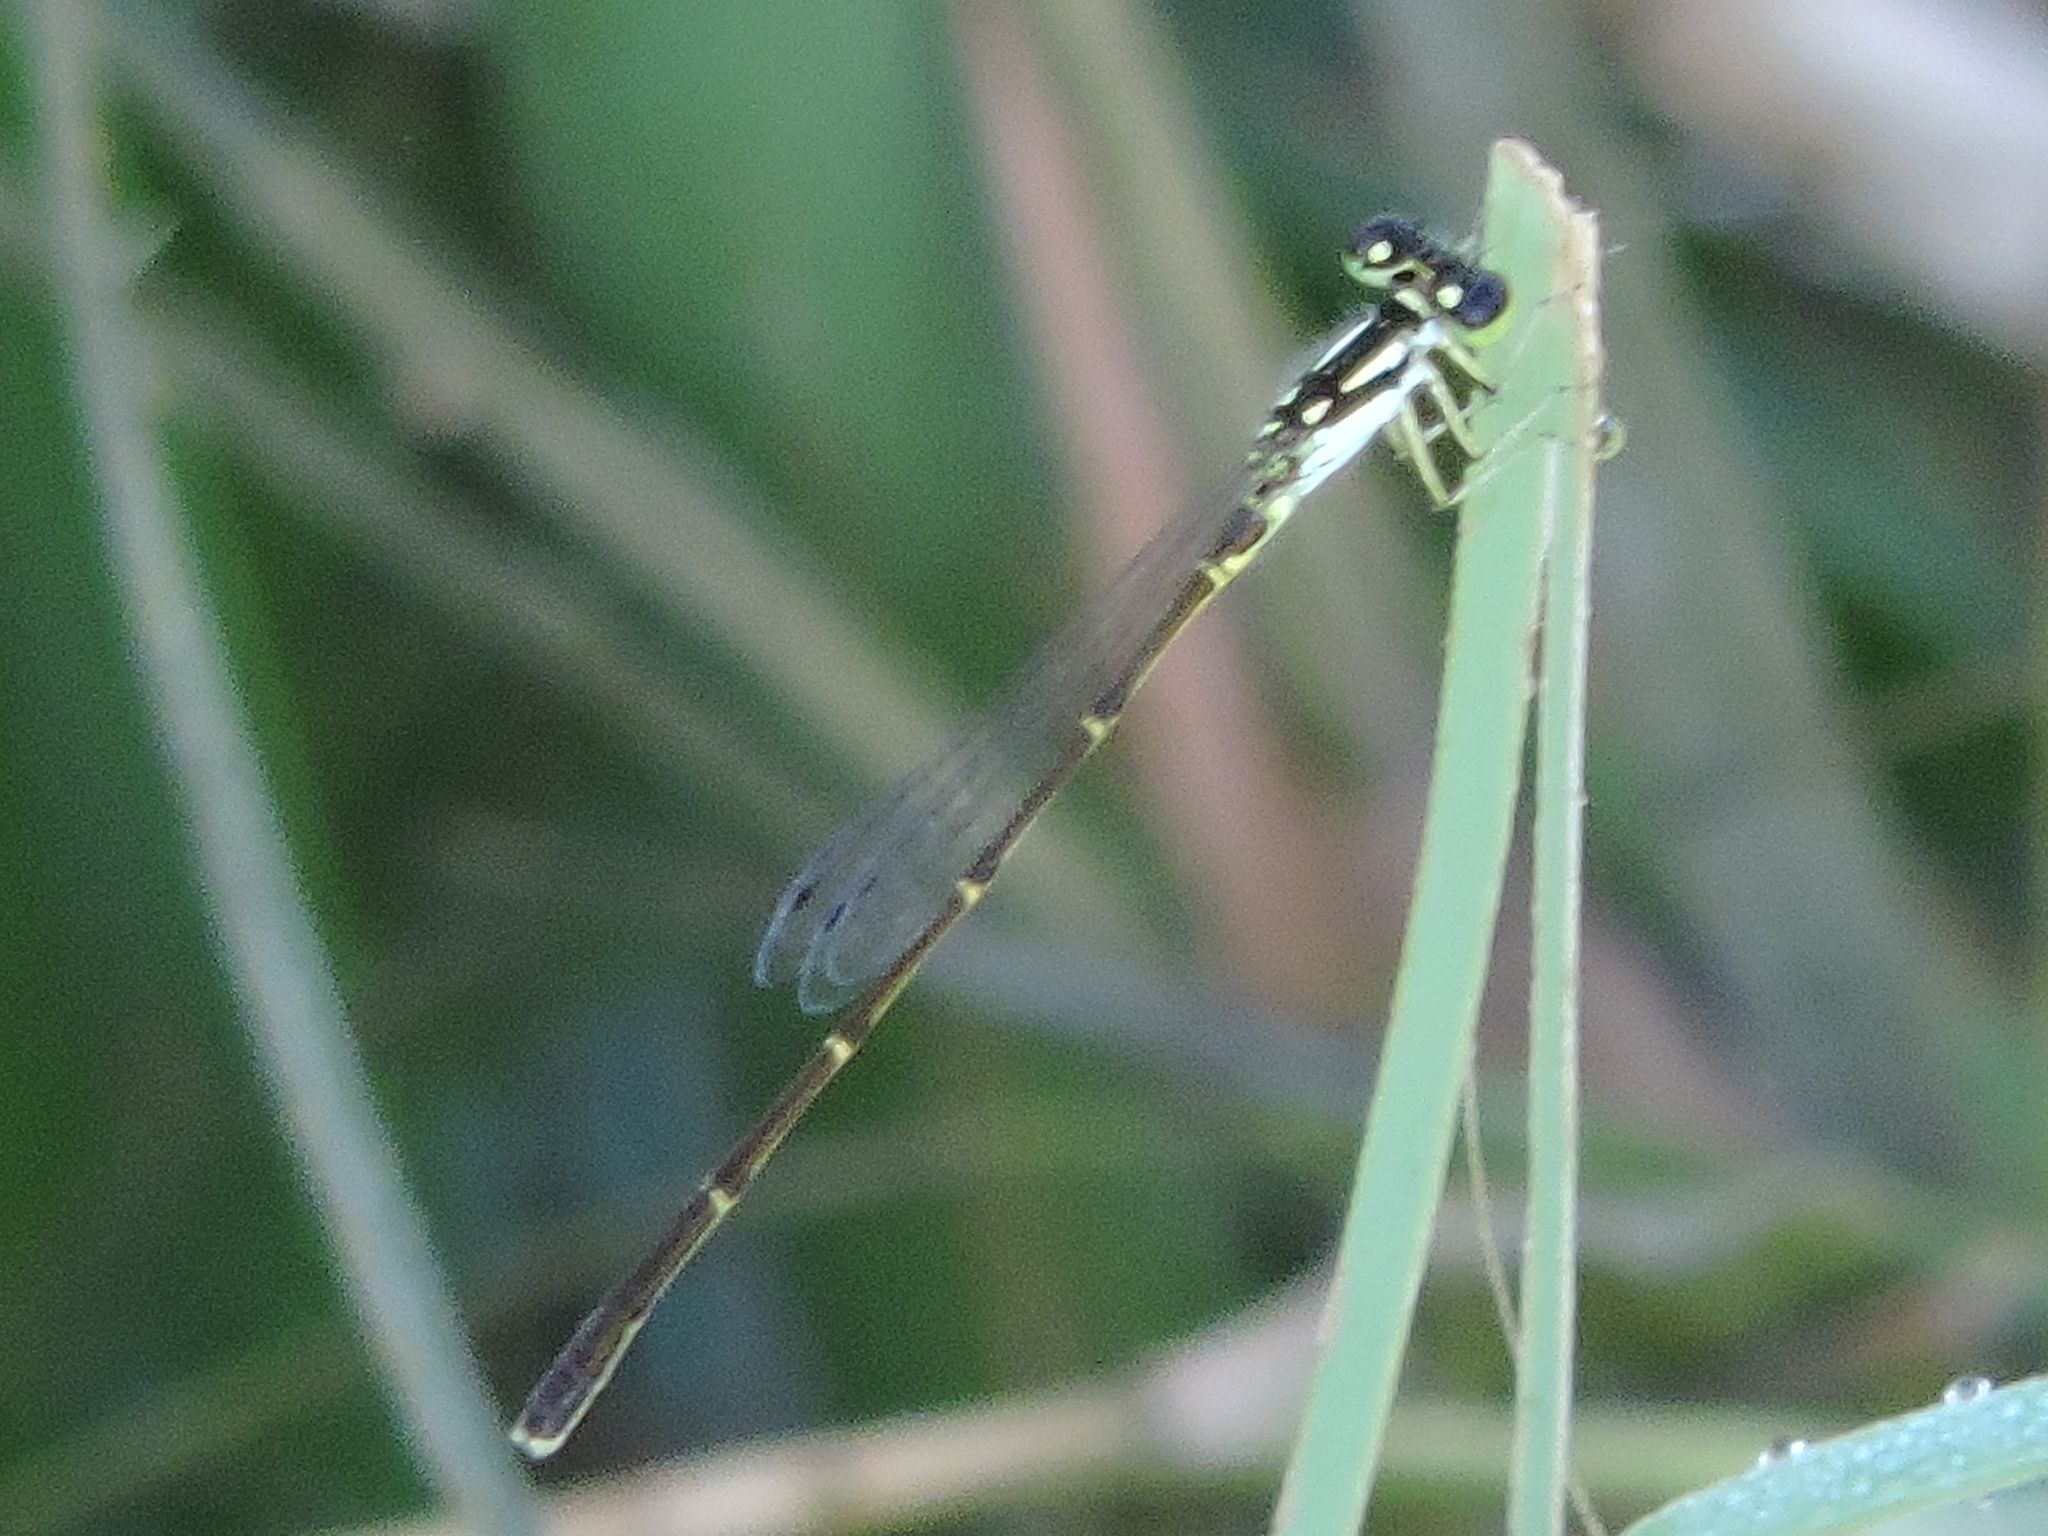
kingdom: Animalia
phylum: Arthropoda
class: Insecta
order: Odonata
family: Coenagrionidae
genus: Ischnura
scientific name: Ischnura posita
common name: Fragile forktail
